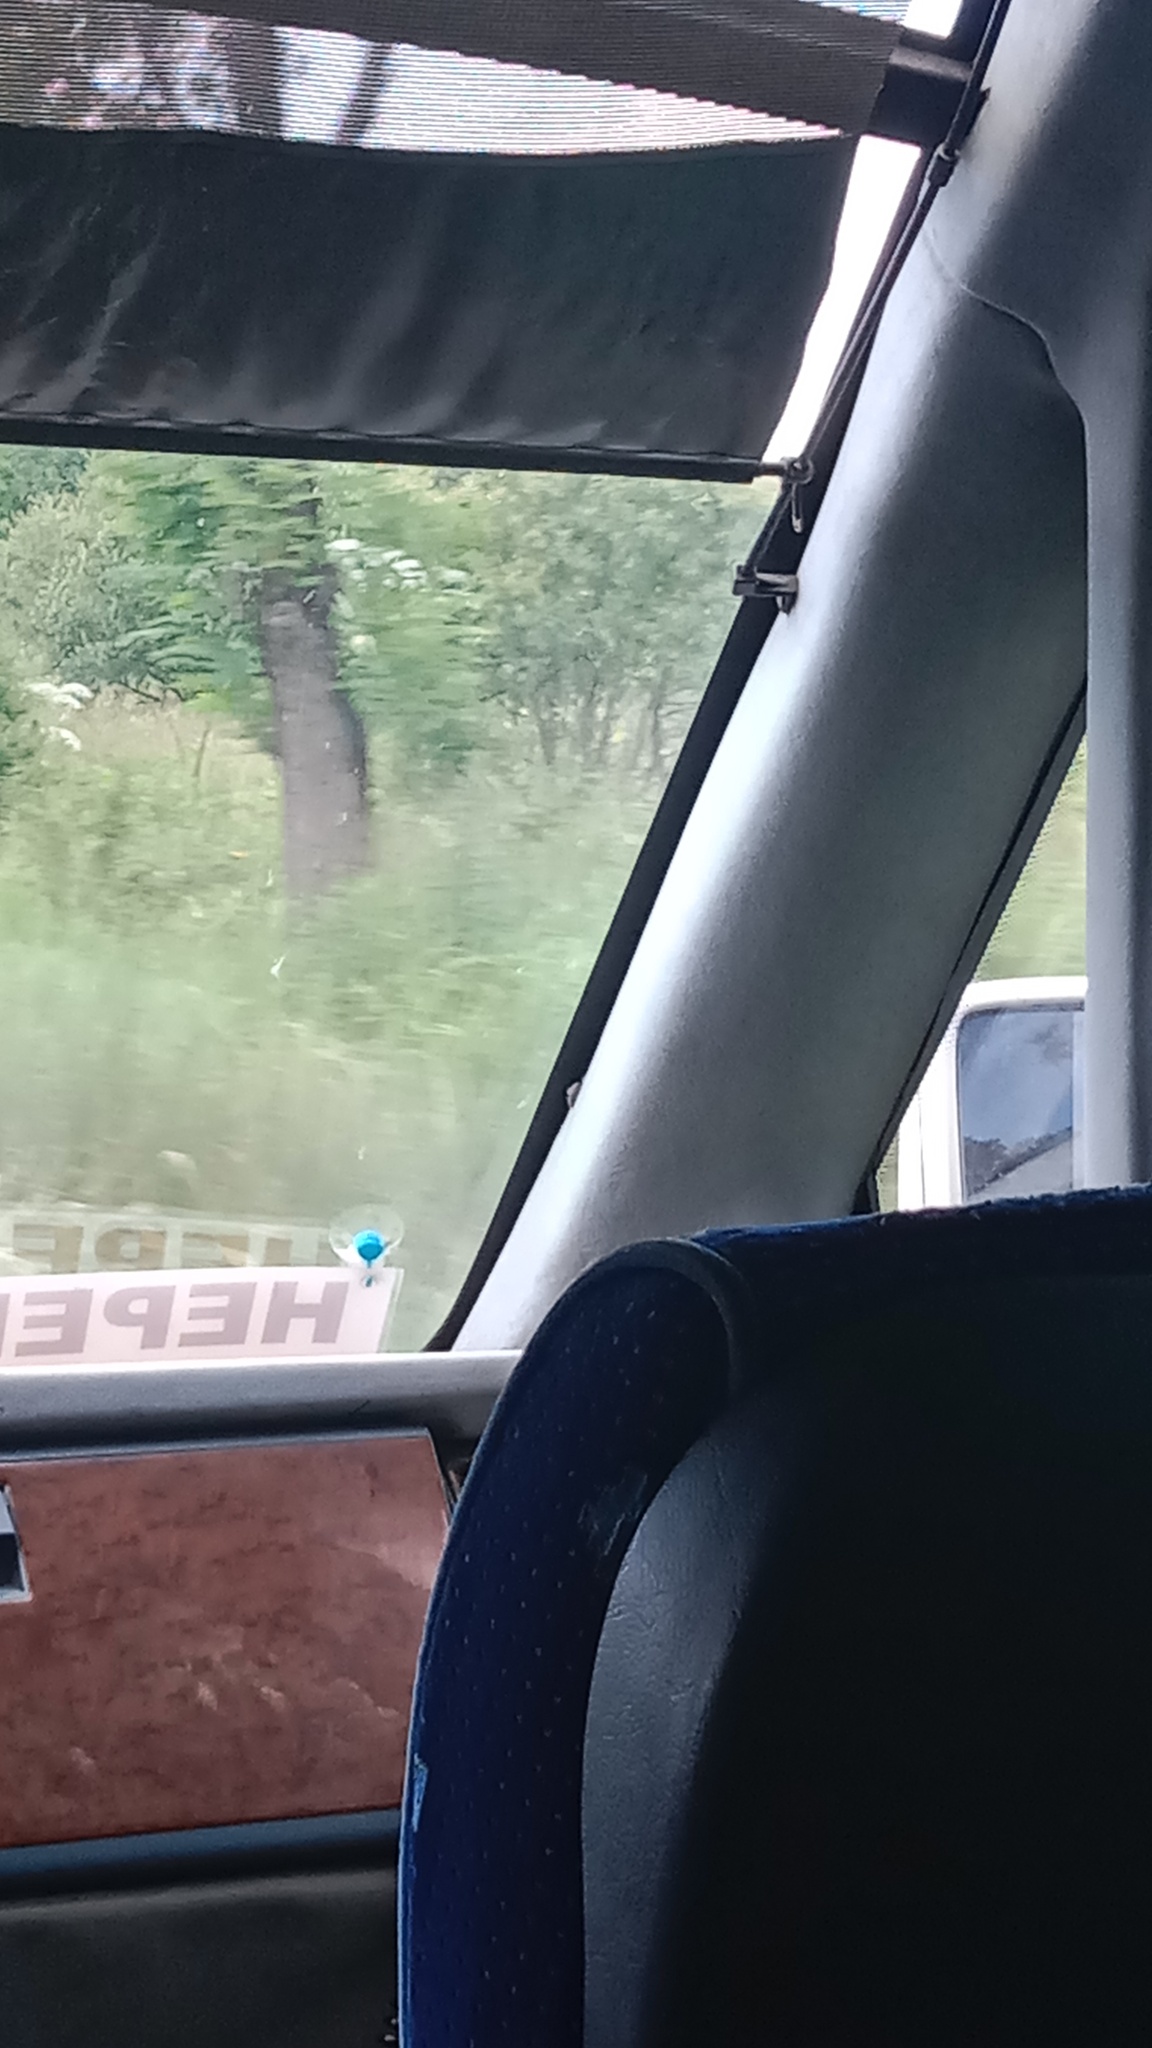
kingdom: Plantae
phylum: Tracheophyta
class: Magnoliopsida
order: Apiales
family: Apiaceae
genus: Heracleum
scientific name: Heracleum sosnowskyi
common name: Sosnowsky's hogweed
